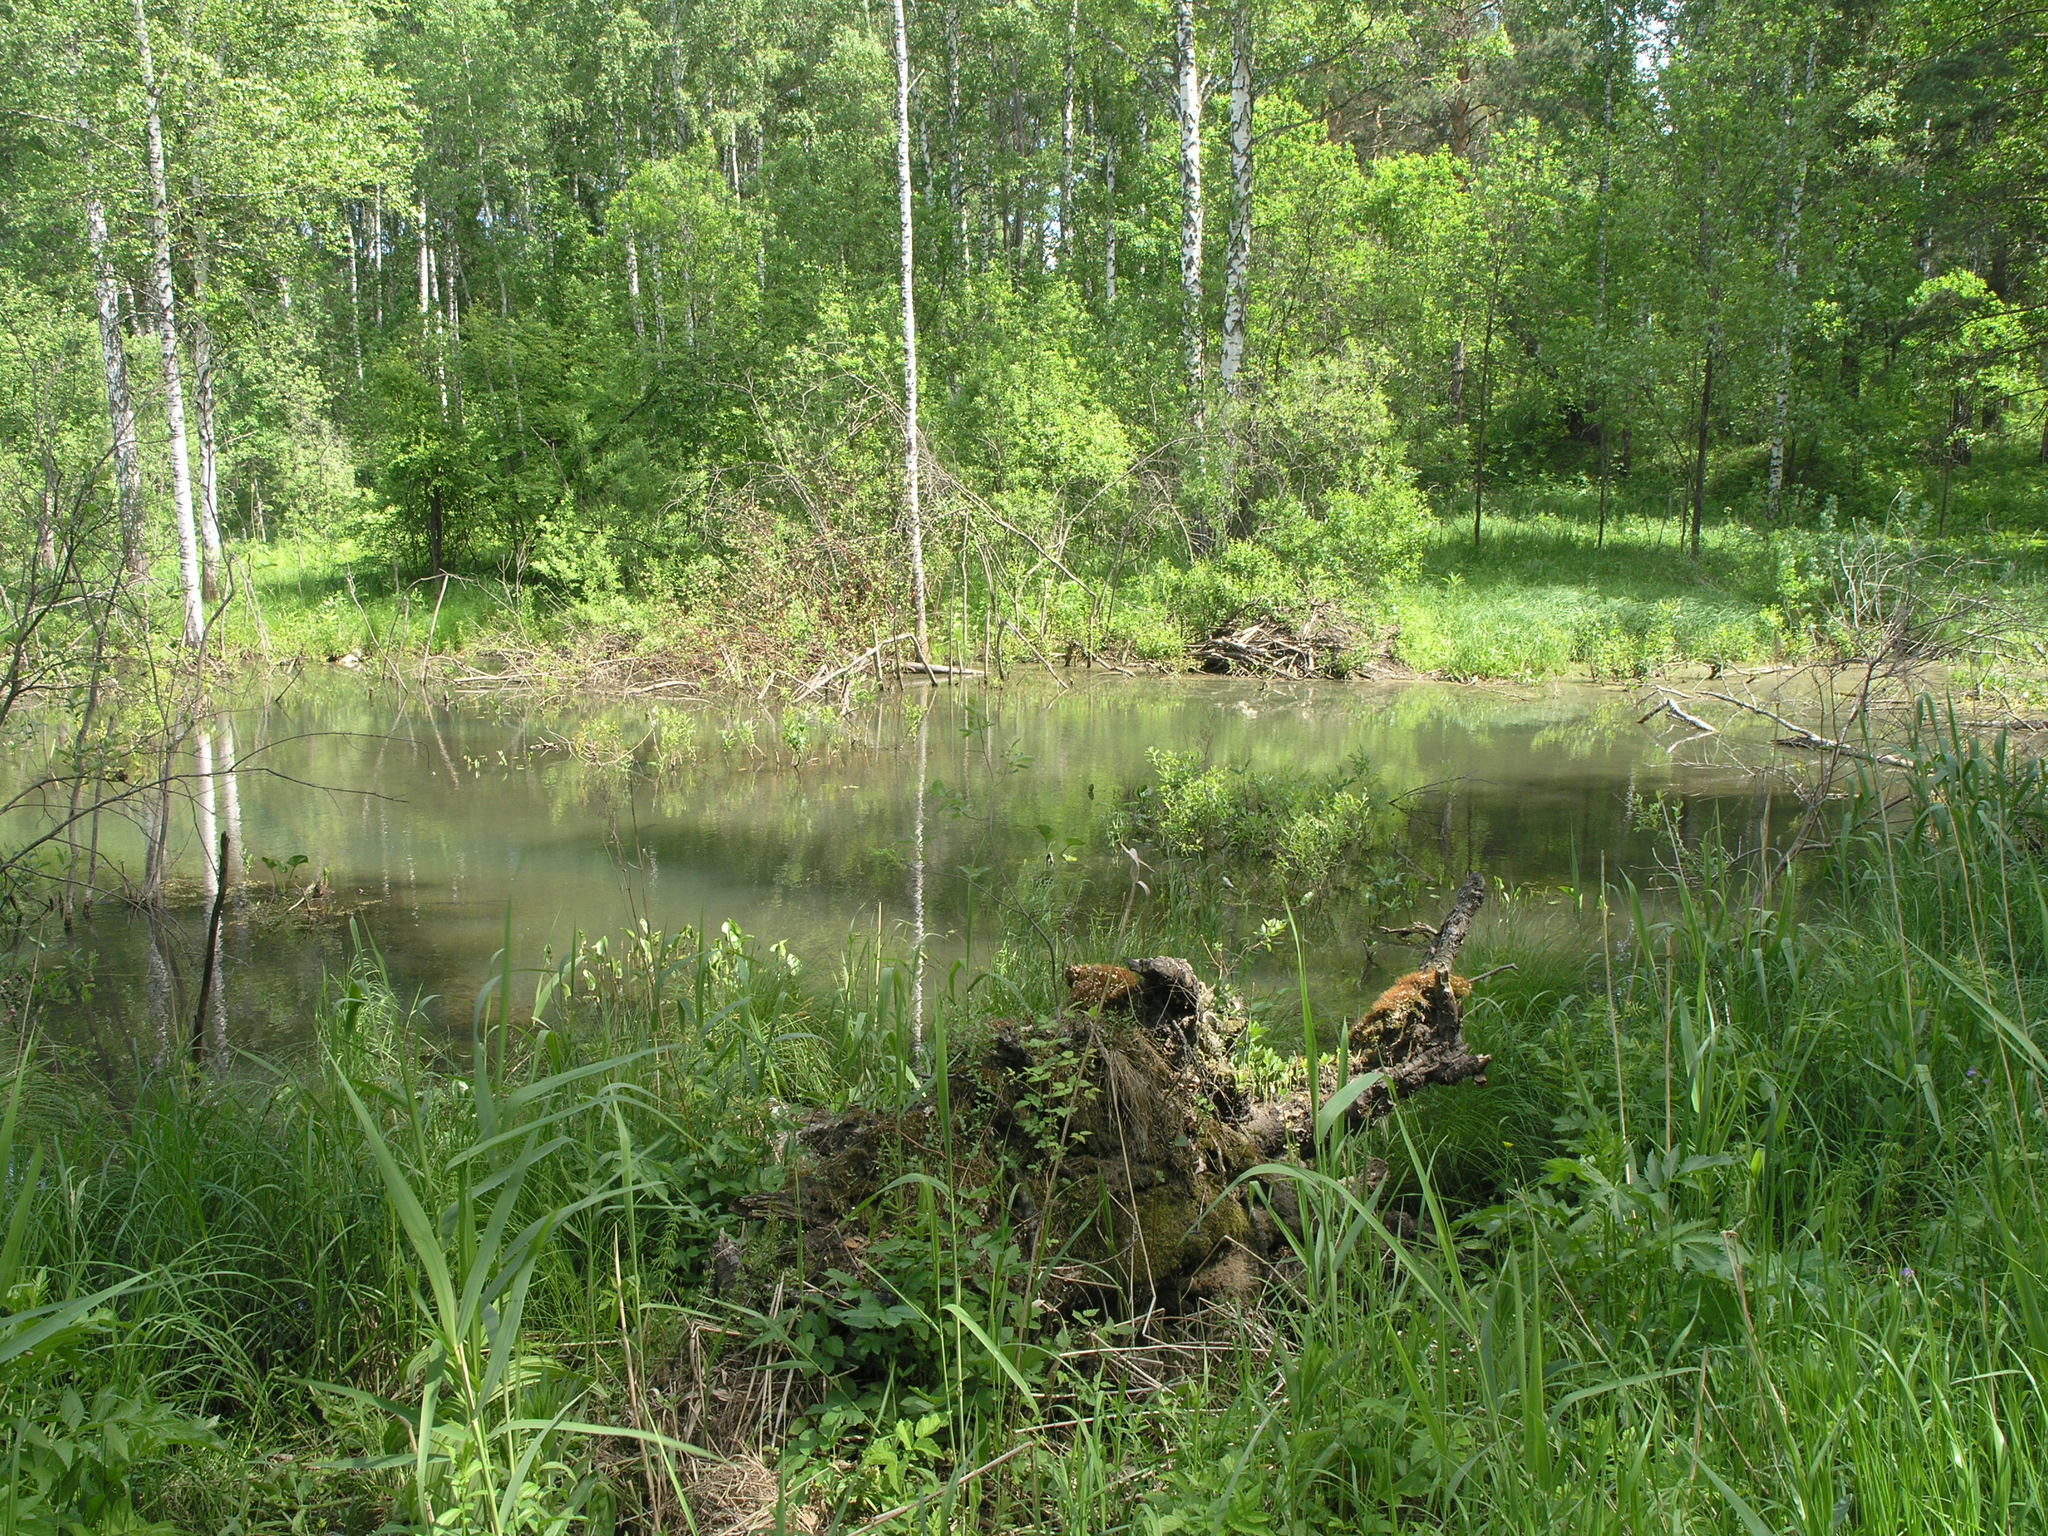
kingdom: Animalia
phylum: Chordata
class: Mammalia
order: Rodentia
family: Castoridae
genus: Castor
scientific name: Castor fiber
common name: Eurasian beaver
